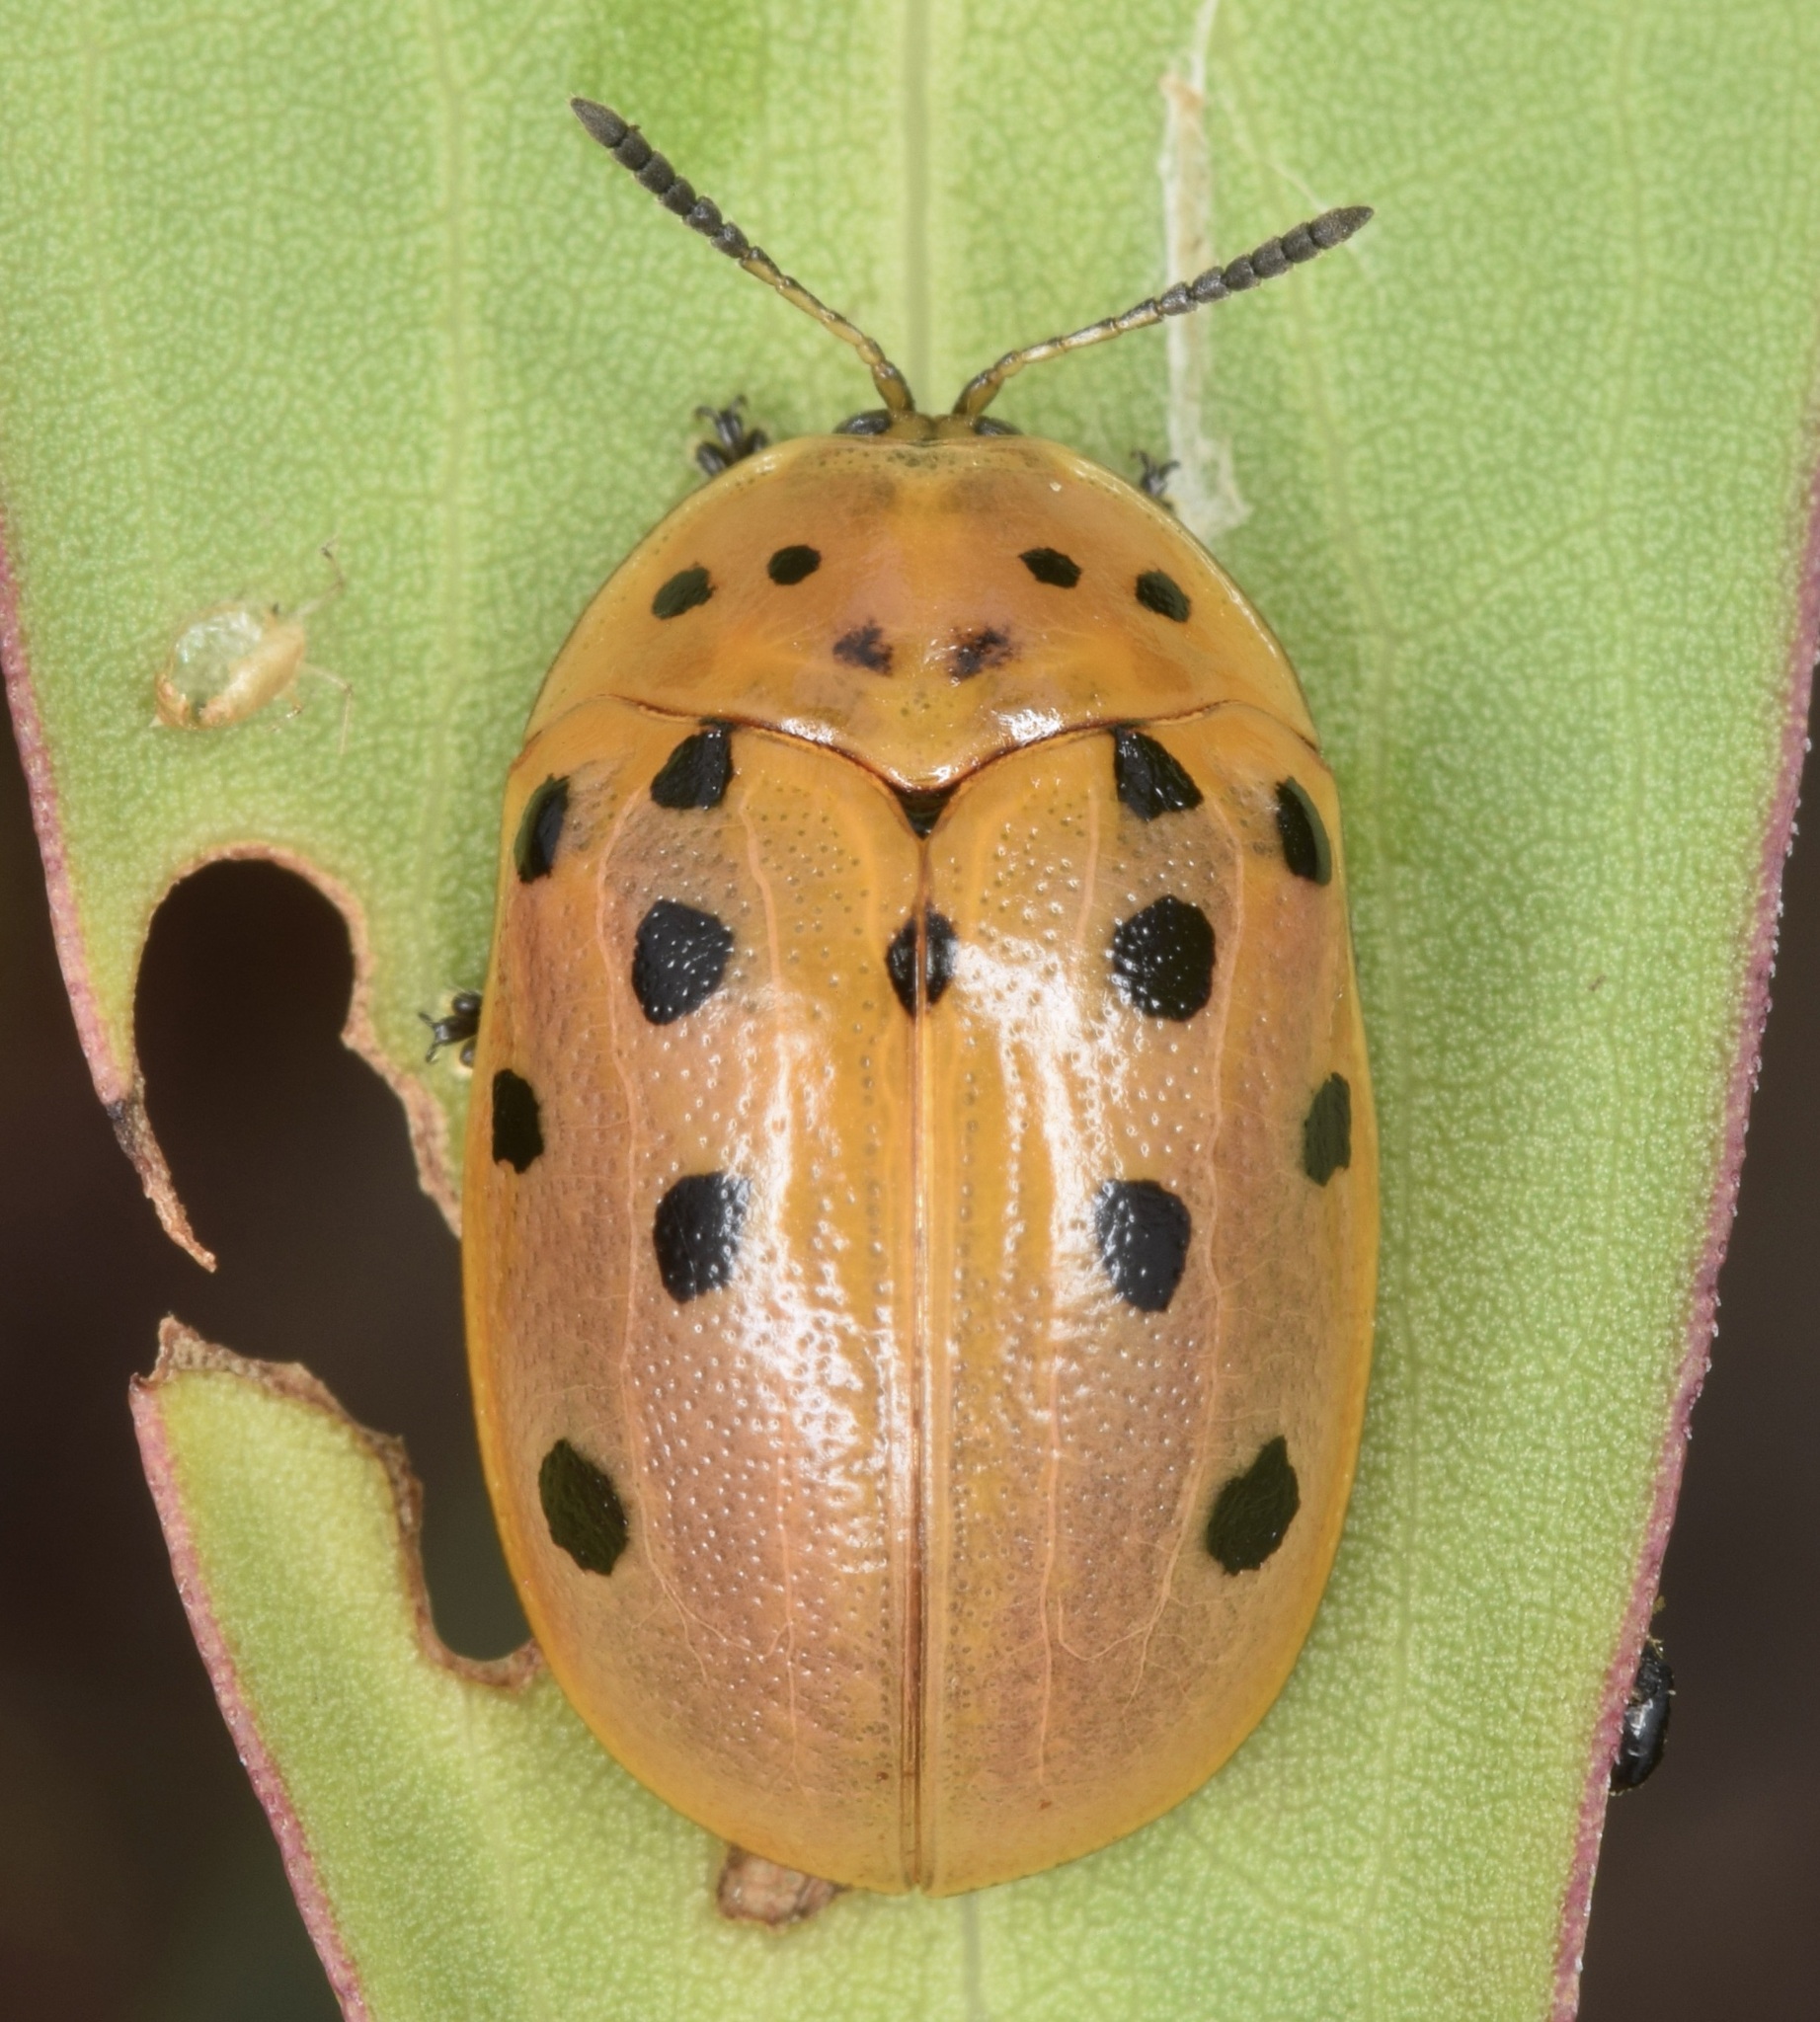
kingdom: Animalia
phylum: Arthropoda
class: Insecta
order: Coleoptera
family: Chrysomelidae
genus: Chelymorpha
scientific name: Chelymorpha cassidea
